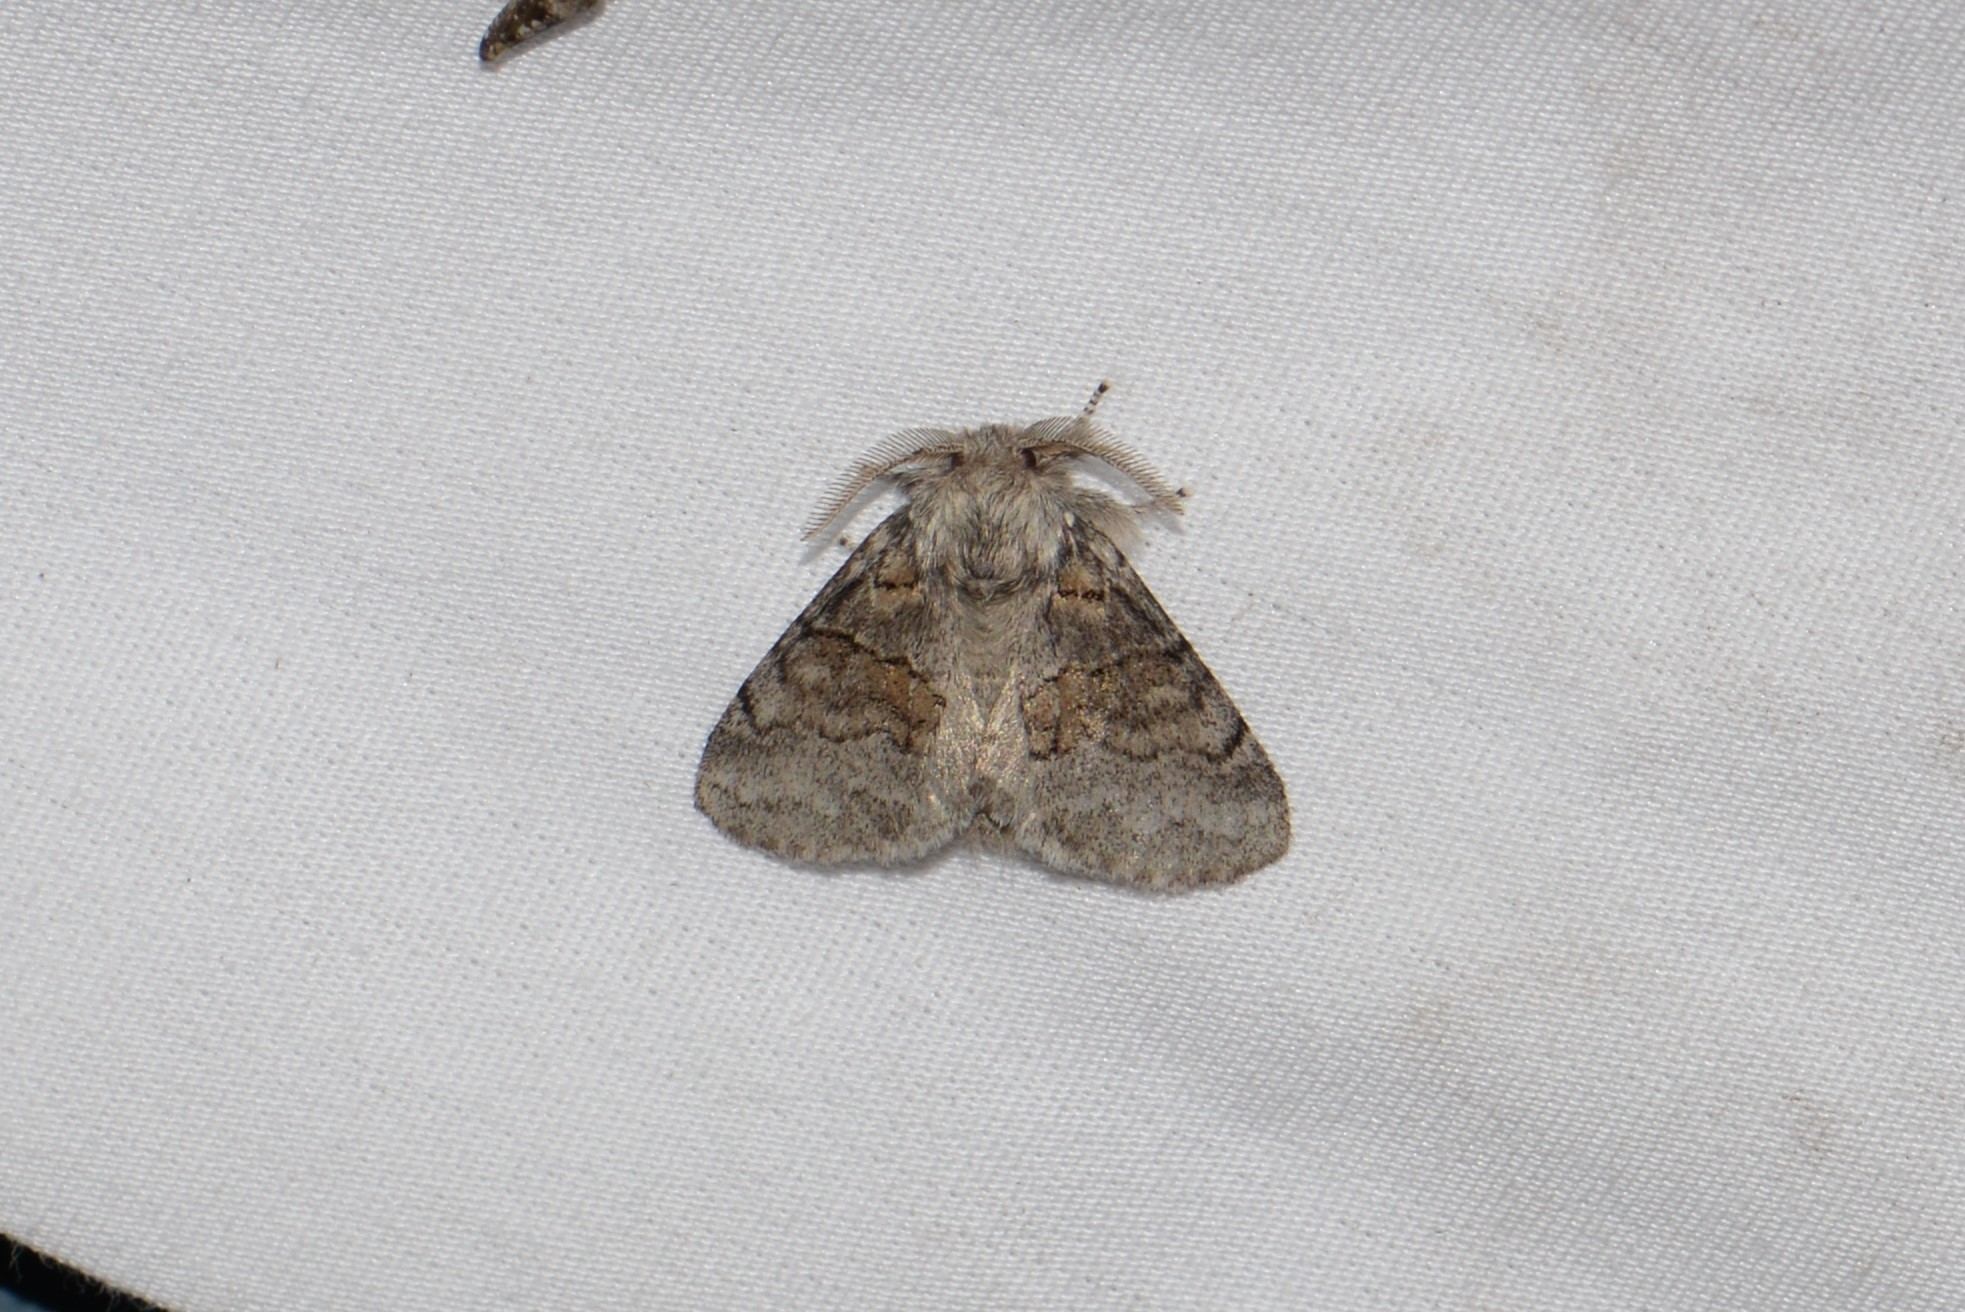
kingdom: Animalia
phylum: Arthropoda
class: Insecta
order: Lepidoptera
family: Notodontidae
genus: Gluphisia
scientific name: Gluphisia septentrionis
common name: Common gluphisia
